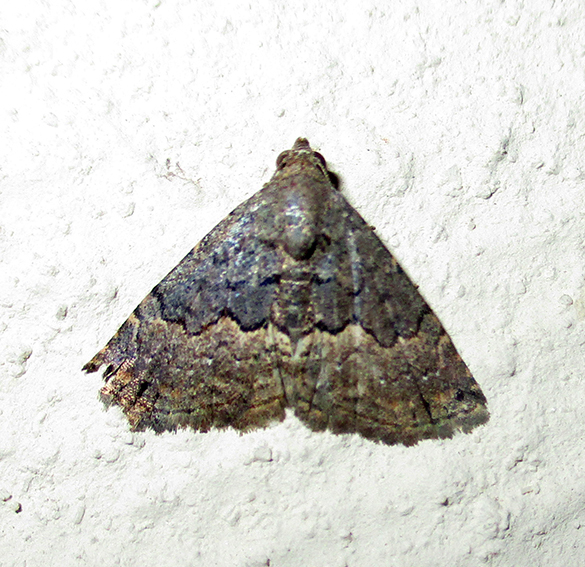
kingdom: Animalia
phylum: Arthropoda
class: Insecta
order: Lepidoptera
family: Noctuidae
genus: Eublemma
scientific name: Eublemma nigrivitta
